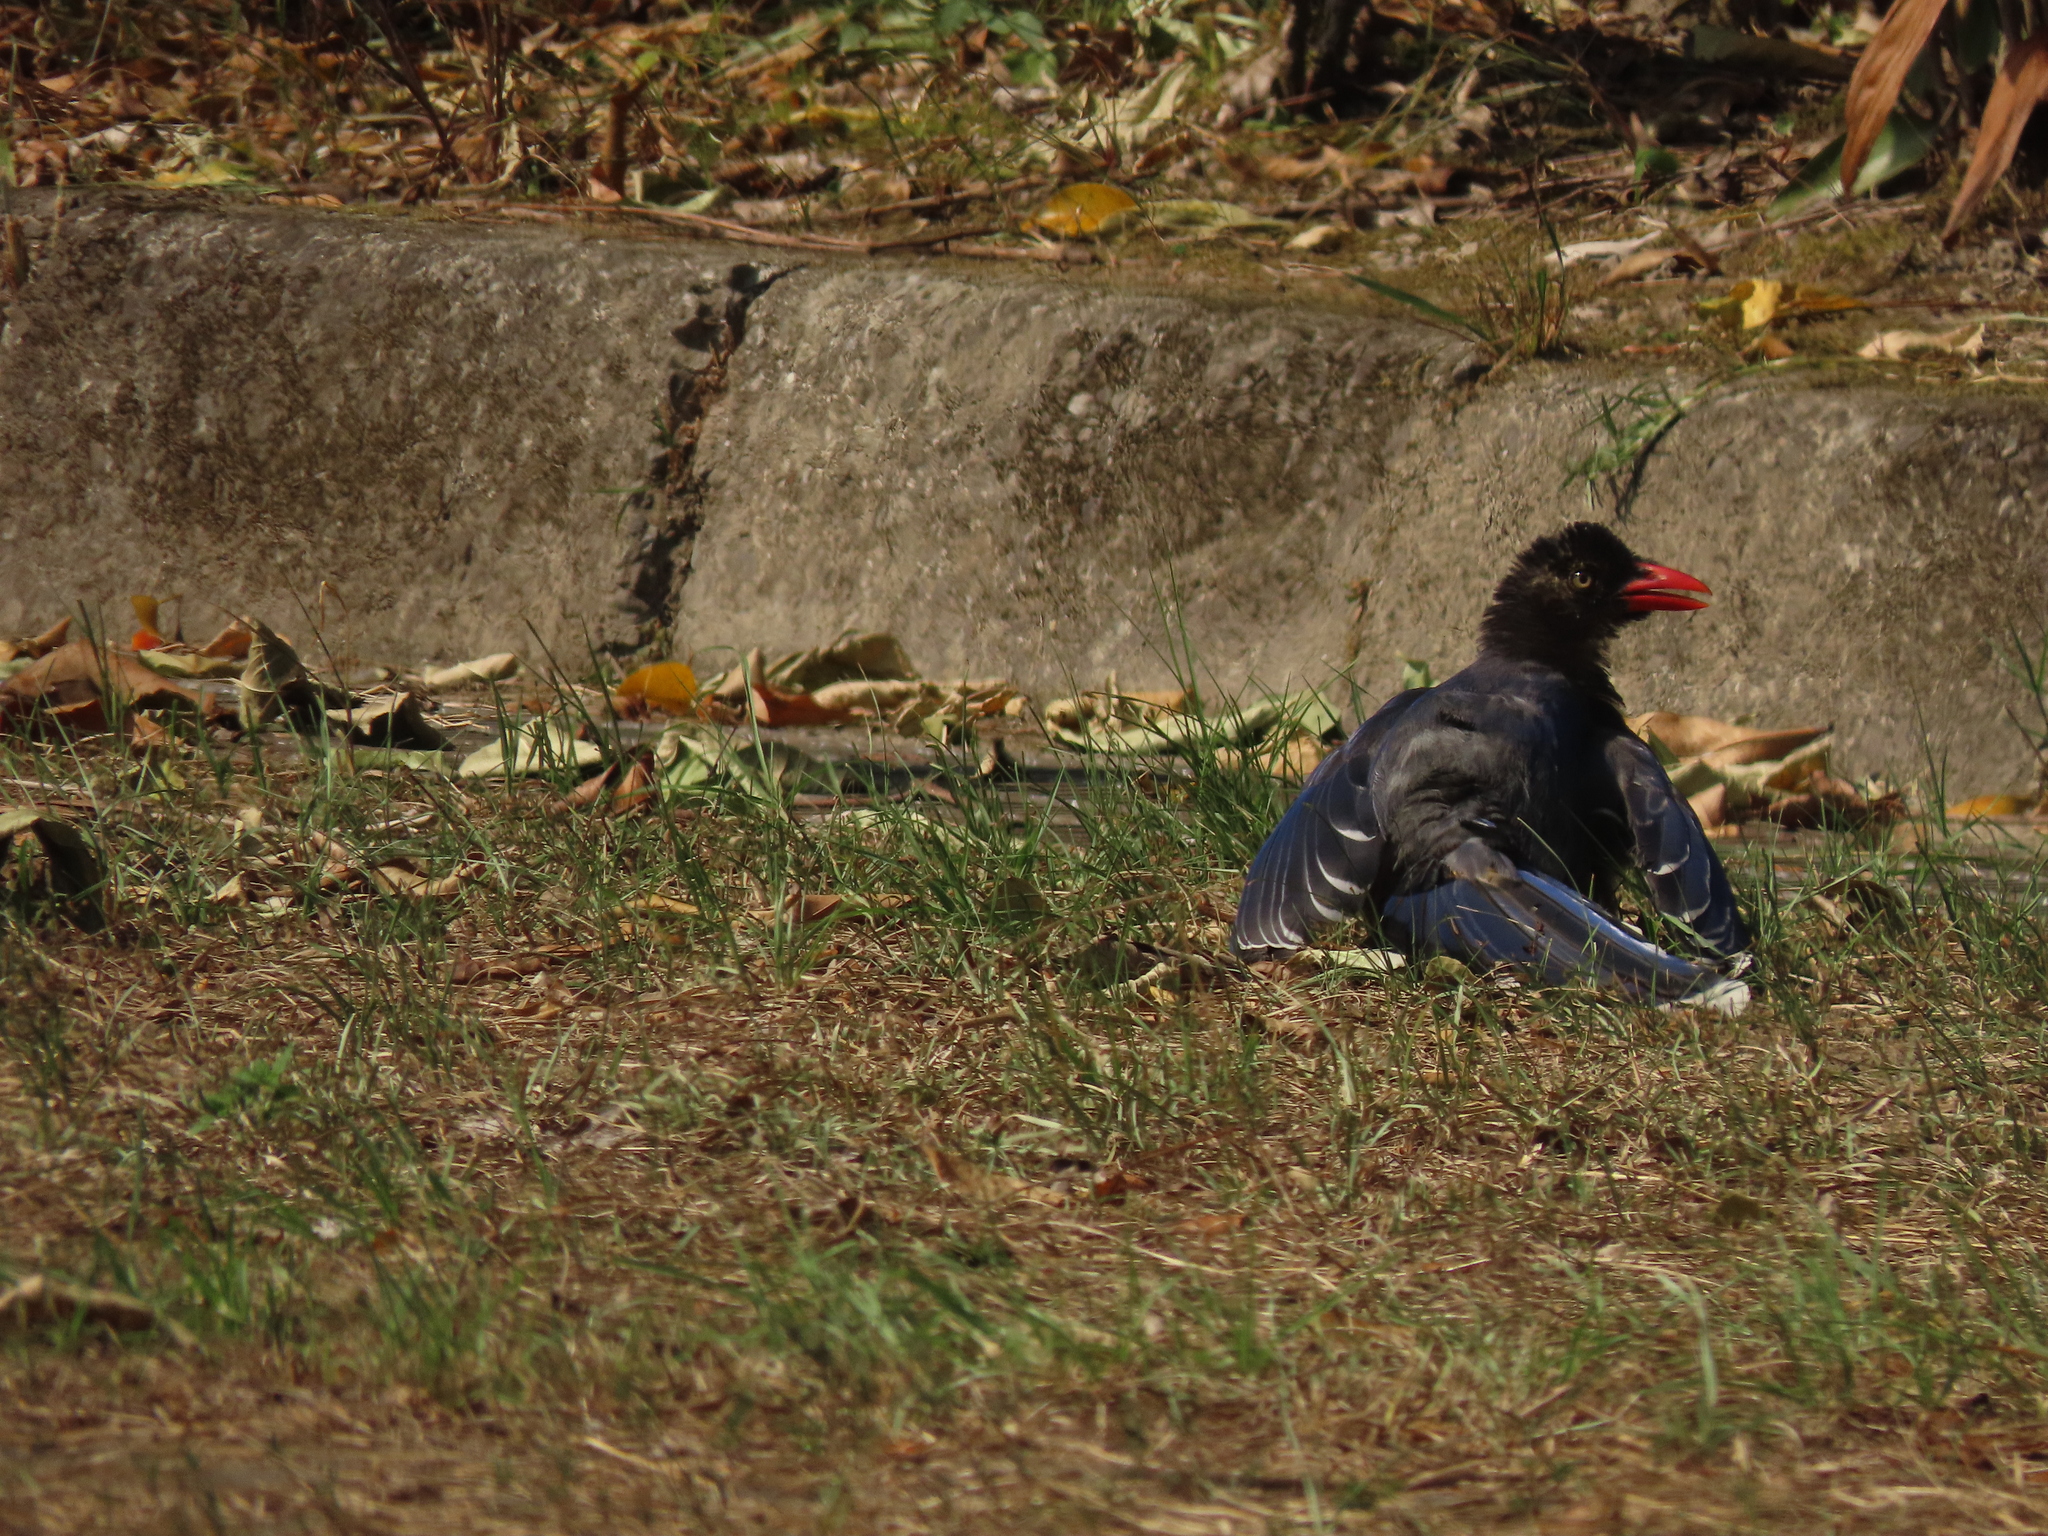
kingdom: Animalia
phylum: Chordata
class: Aves
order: Passeriformes
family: Corvidae
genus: Urocissa
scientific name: Urocissa caerulea
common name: Taiwan blue magpie
